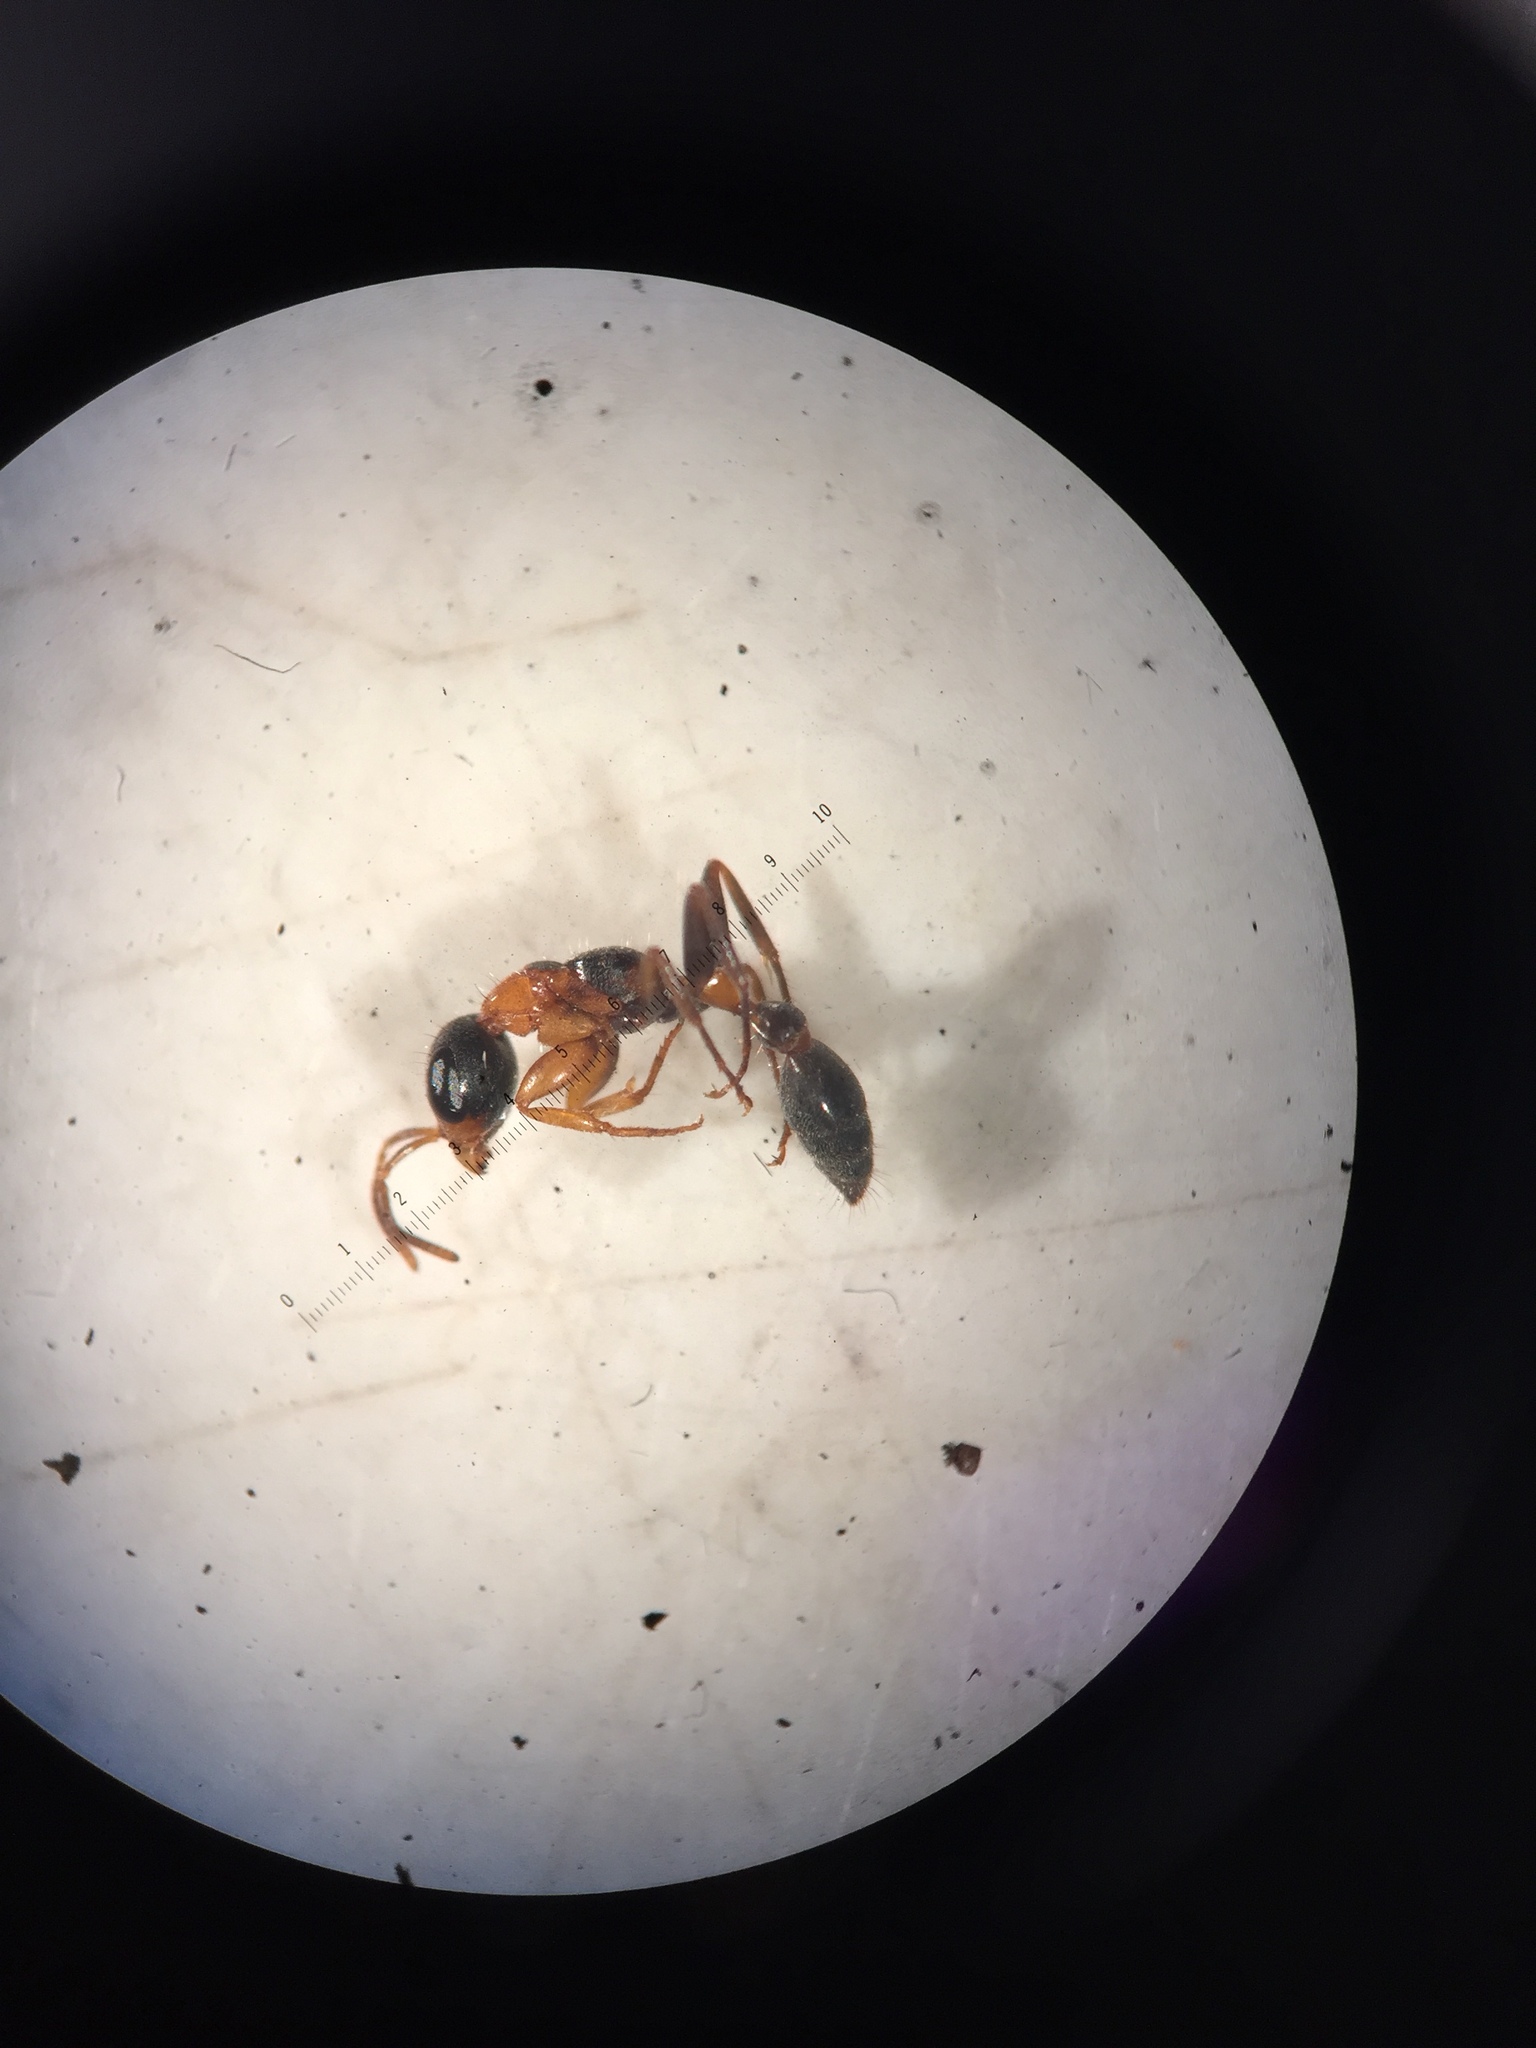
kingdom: Animalia
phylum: Arthropoda
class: Insecta
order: Hymenoptera
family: Formicidae
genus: Pseudomyrmex
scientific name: Pseudomyrmex gracilis
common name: Graceful twig ant
